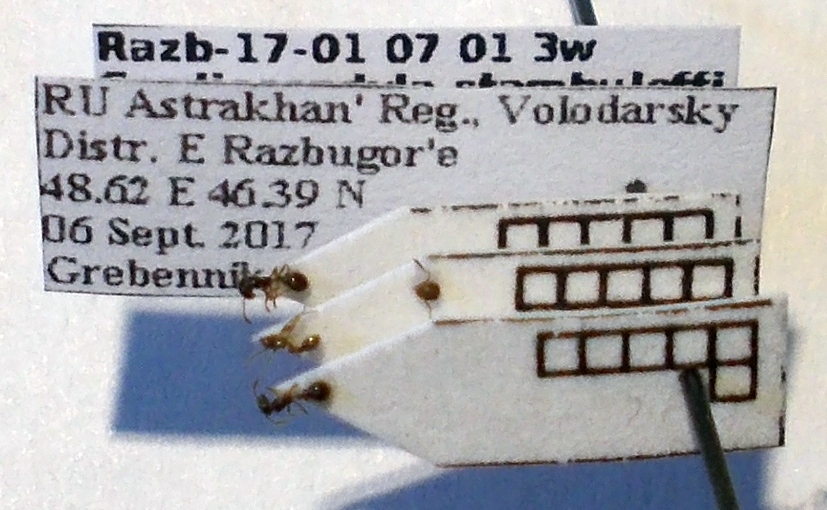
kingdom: Animalia
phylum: Arthropoda
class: Insecta
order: Hymenoptera
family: Formicidae
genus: Cardiocondyla
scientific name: Cardiocondyla stambuloffii
